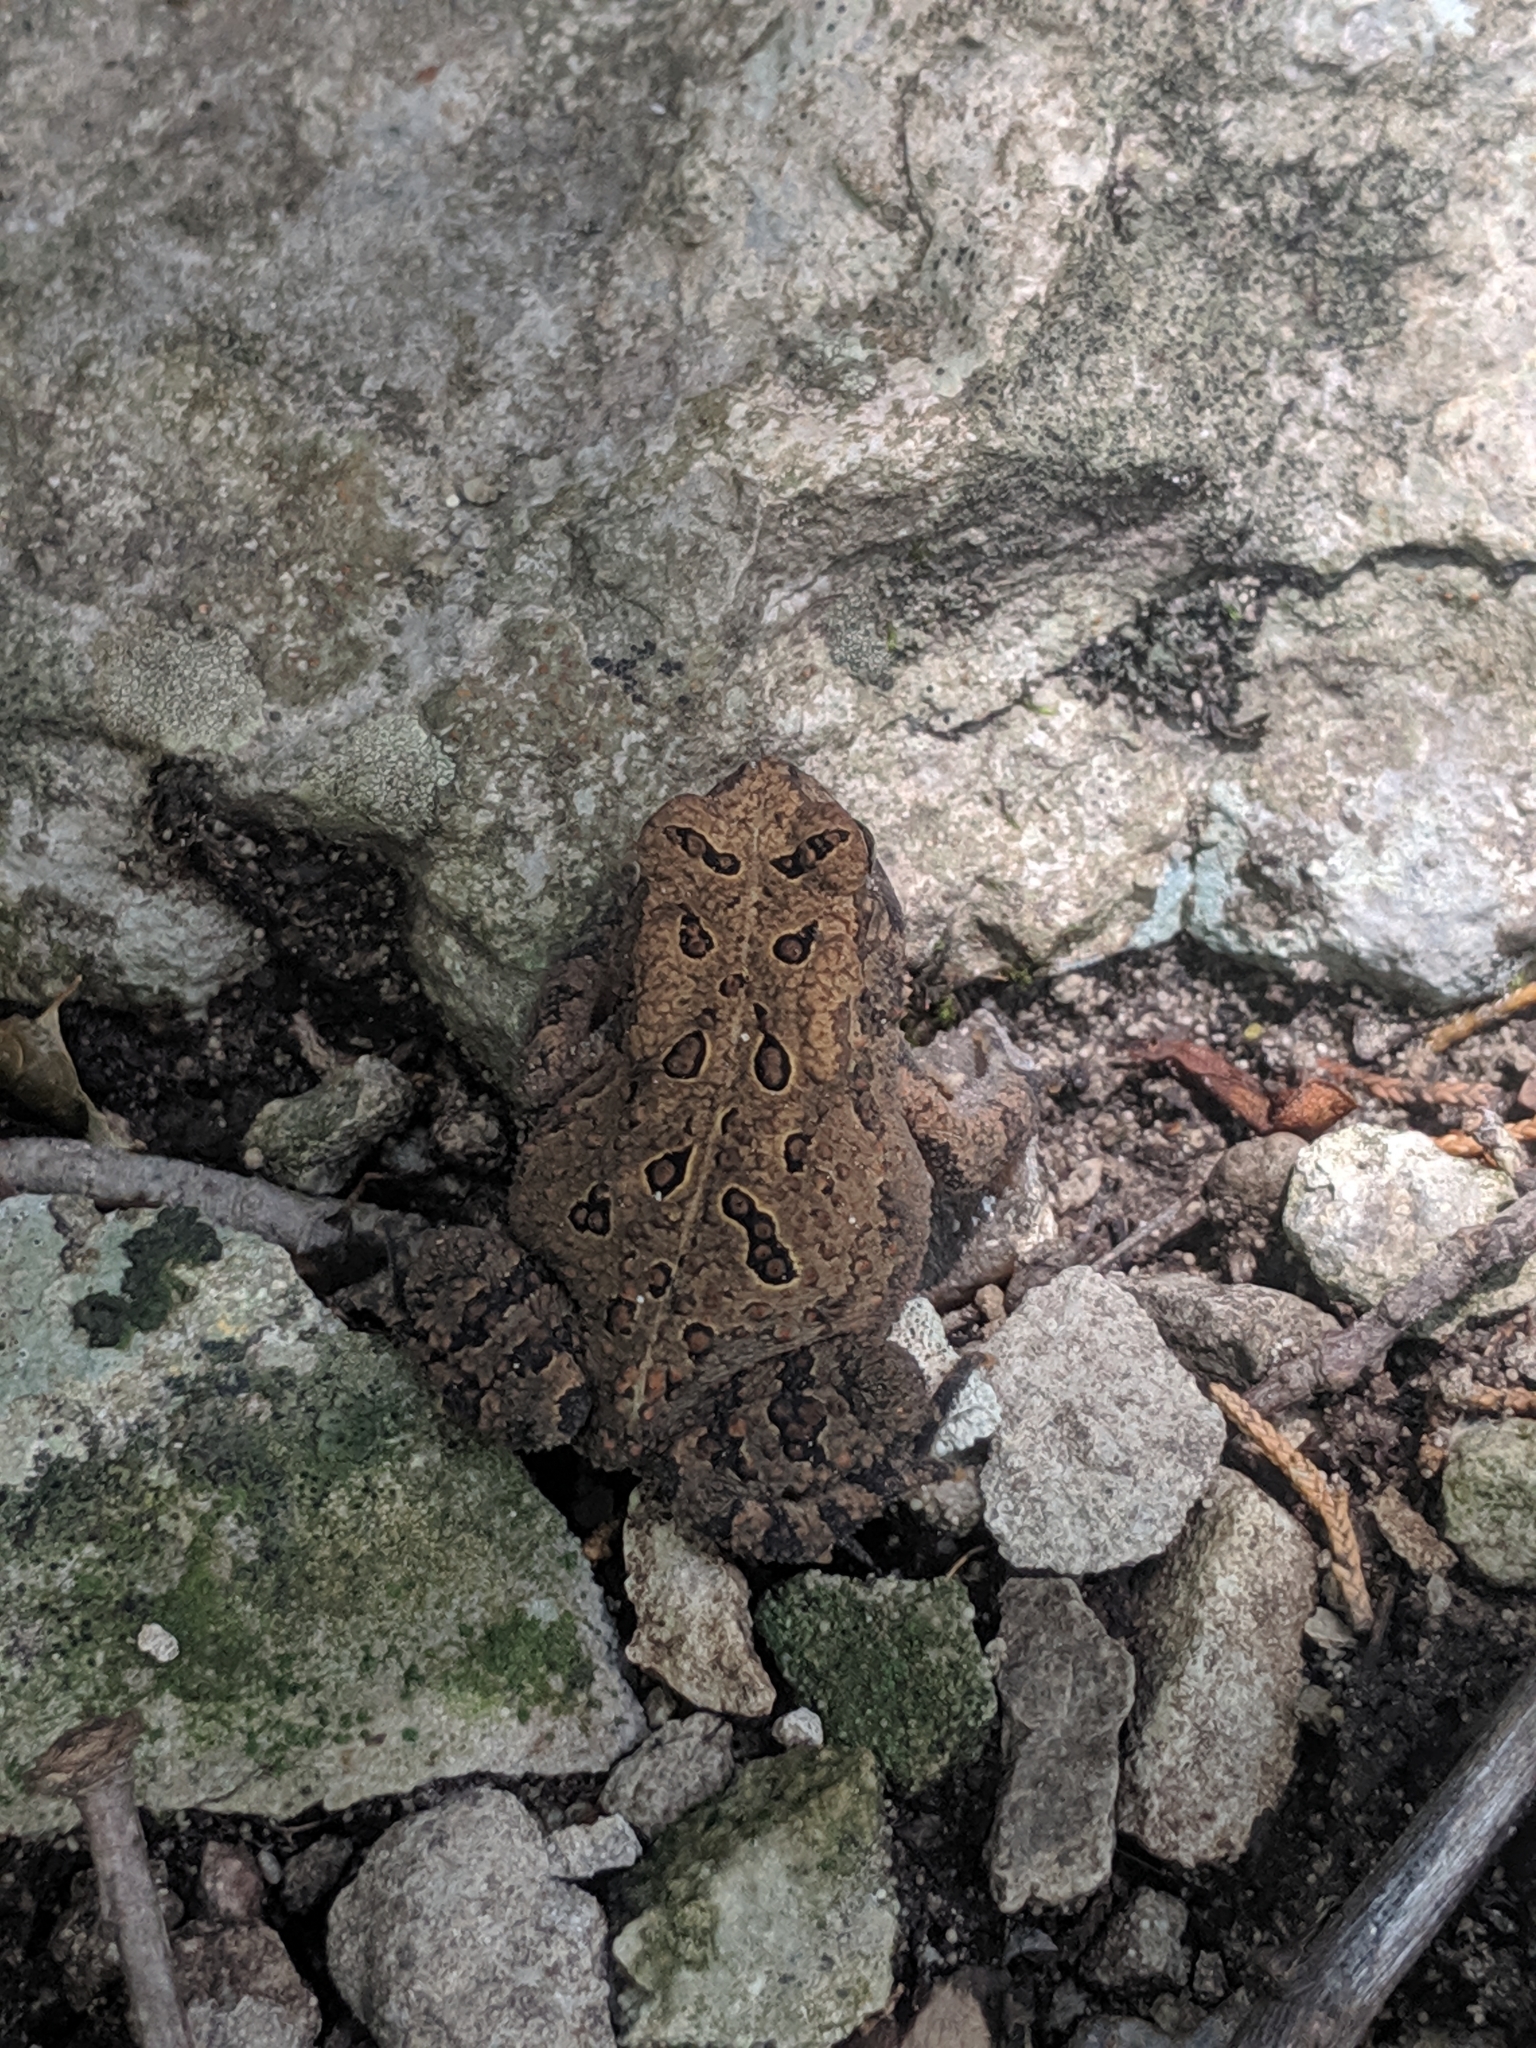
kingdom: Animalia
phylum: Chordata
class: Amphibia
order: Anura
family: Bufonidae
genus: Anaxyrus
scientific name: Anaxyrus americanus
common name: American toad
